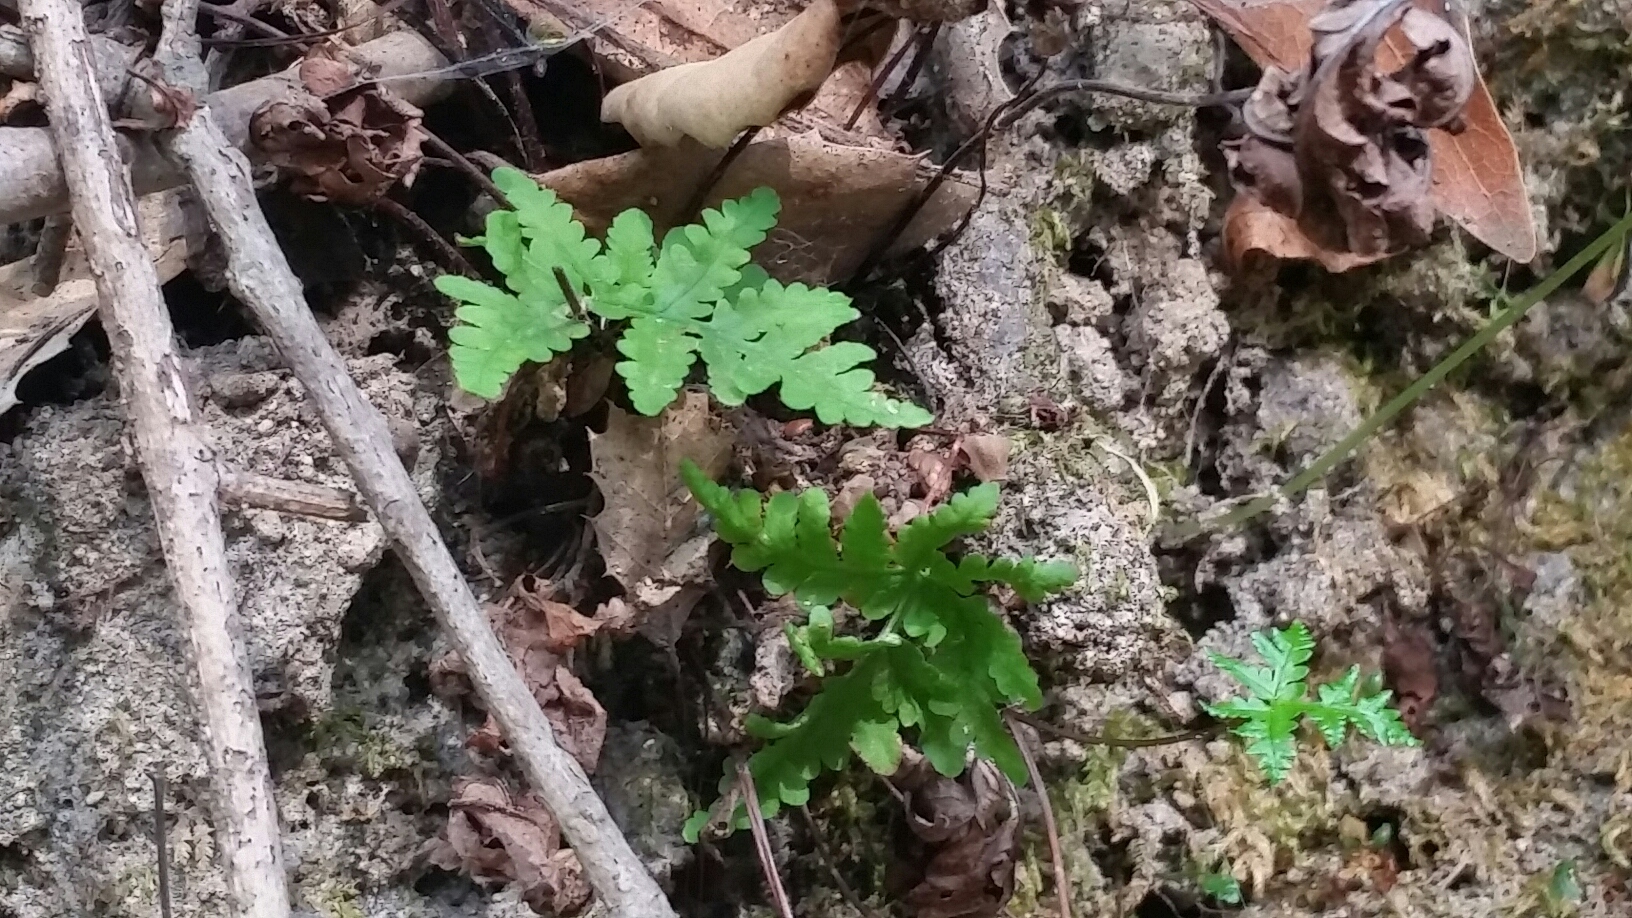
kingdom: Plantae
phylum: Tracheophyta
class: Polypodiopsida
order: Polypodiales
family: Pteridaceae
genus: Pentagramma
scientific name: Pentagramma triangularis
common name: Gold fern
